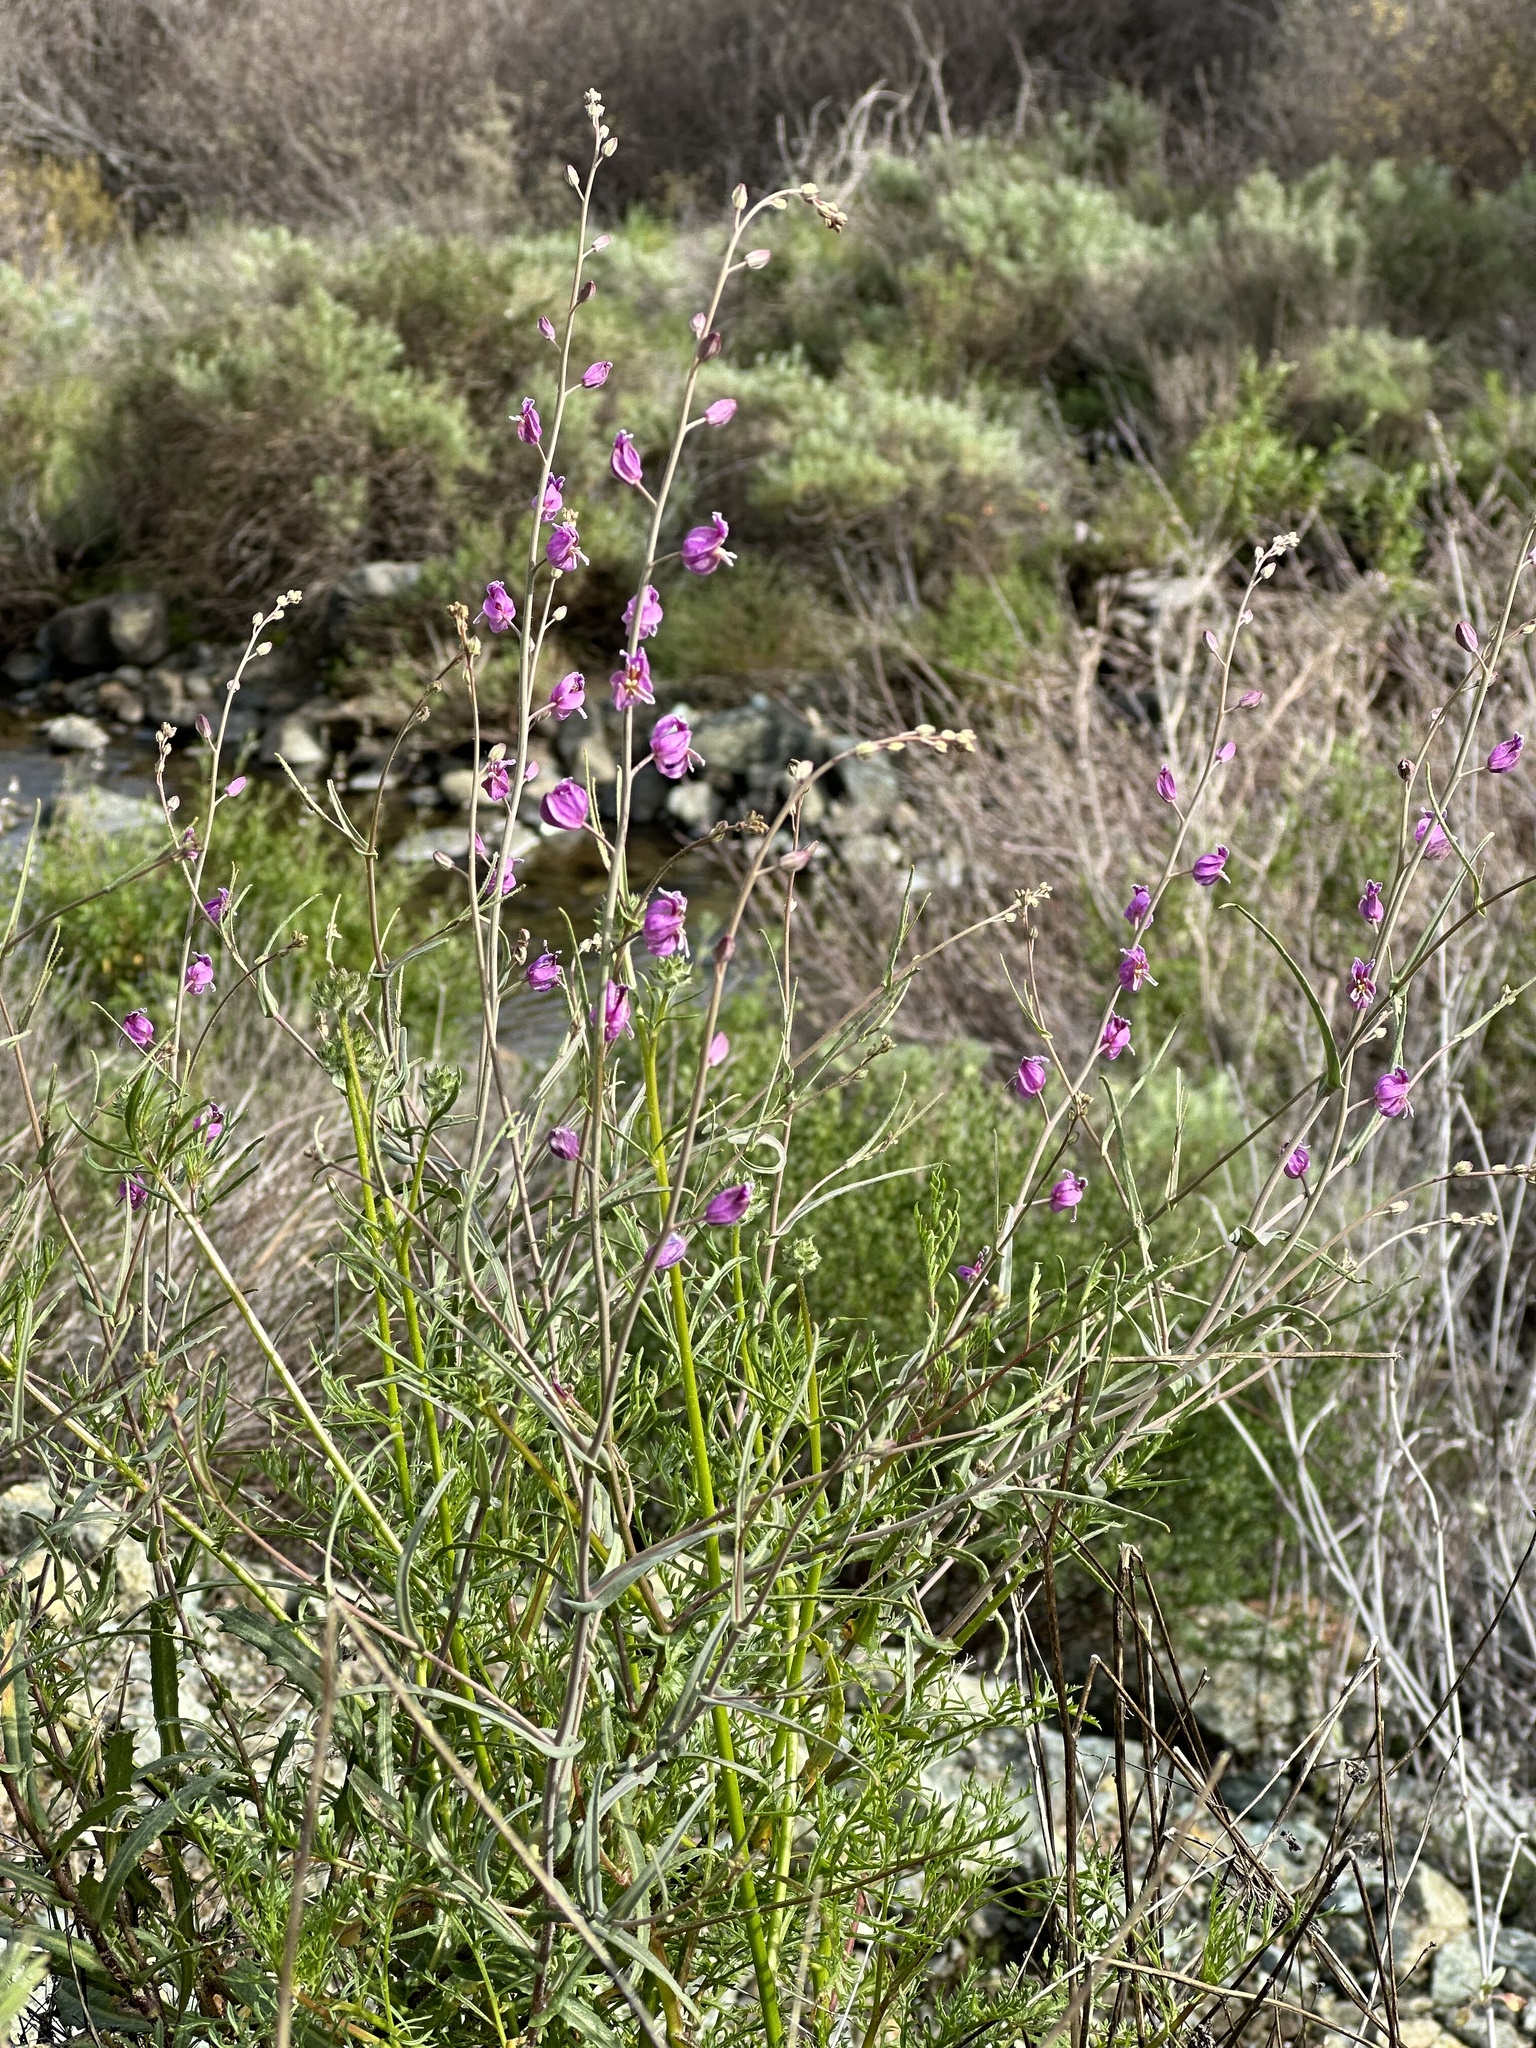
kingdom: Plantae
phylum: Tracheophyta
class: Magnoliopsida
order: Brassicales
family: Brassicaceae
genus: Streptanthus
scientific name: Streptanthus glandulosus
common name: Jewel-flower
